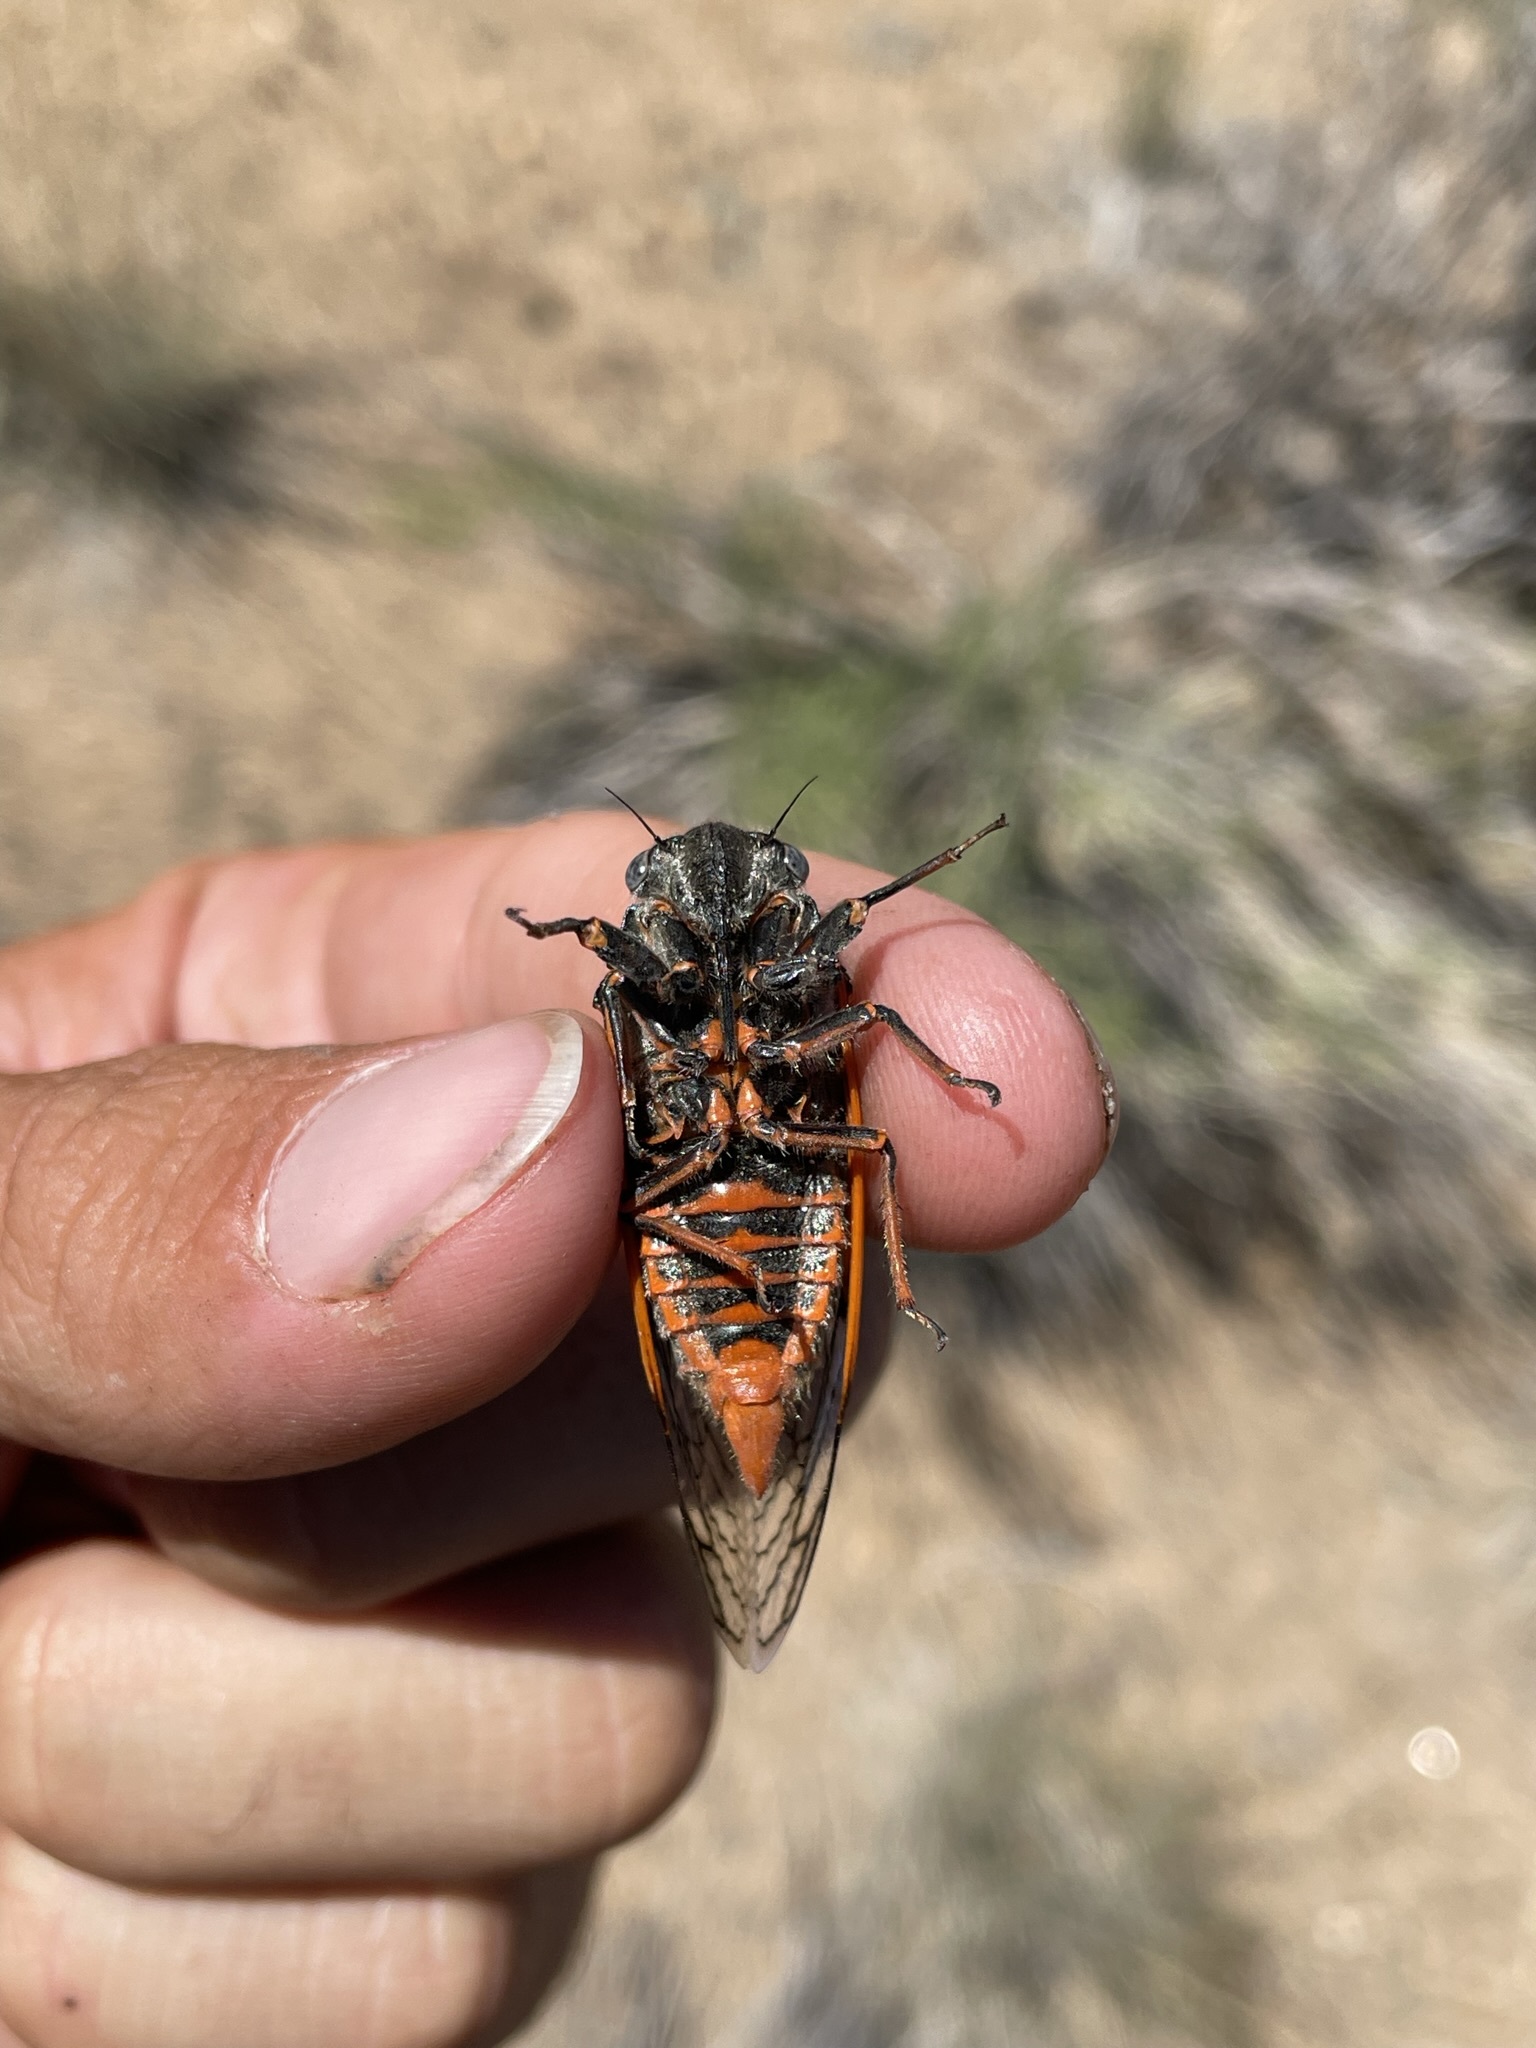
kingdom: Animalia
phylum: Arthropoda
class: Insecta
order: Hemiptera
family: Cicadidae
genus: Okanagana
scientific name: Okanagana cruentifera
